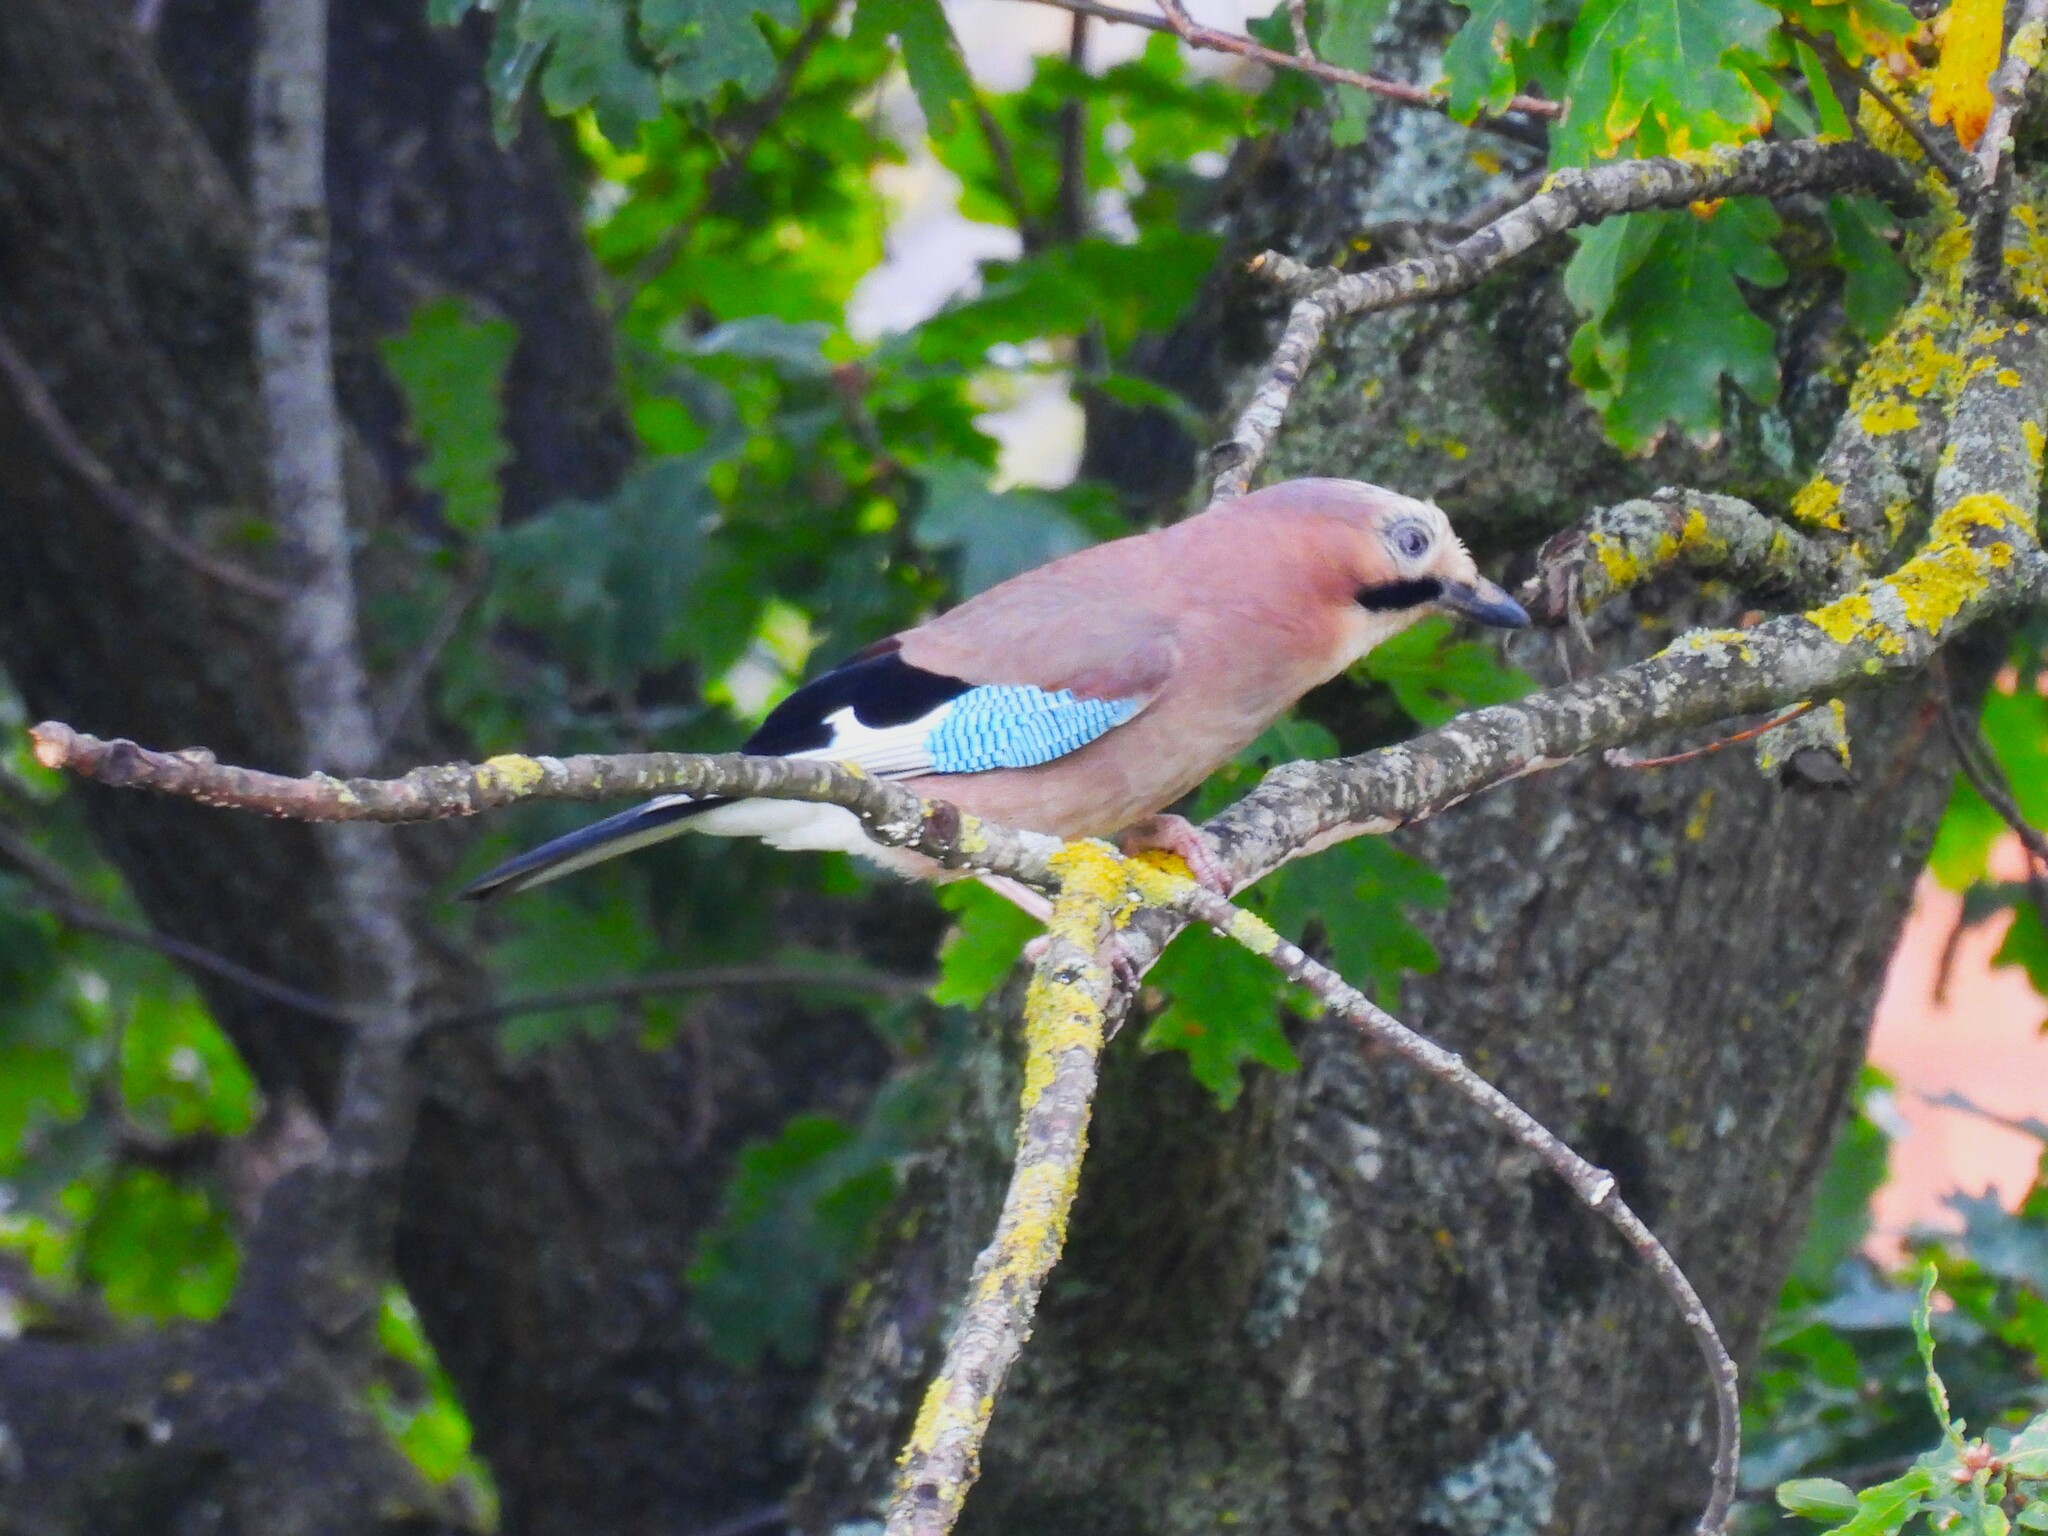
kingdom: Animalia
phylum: Chordata
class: Aves
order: Passeriformes
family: Corvidae
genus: Garrulus
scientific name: Garrulus glandarius
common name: Eurasian jay
